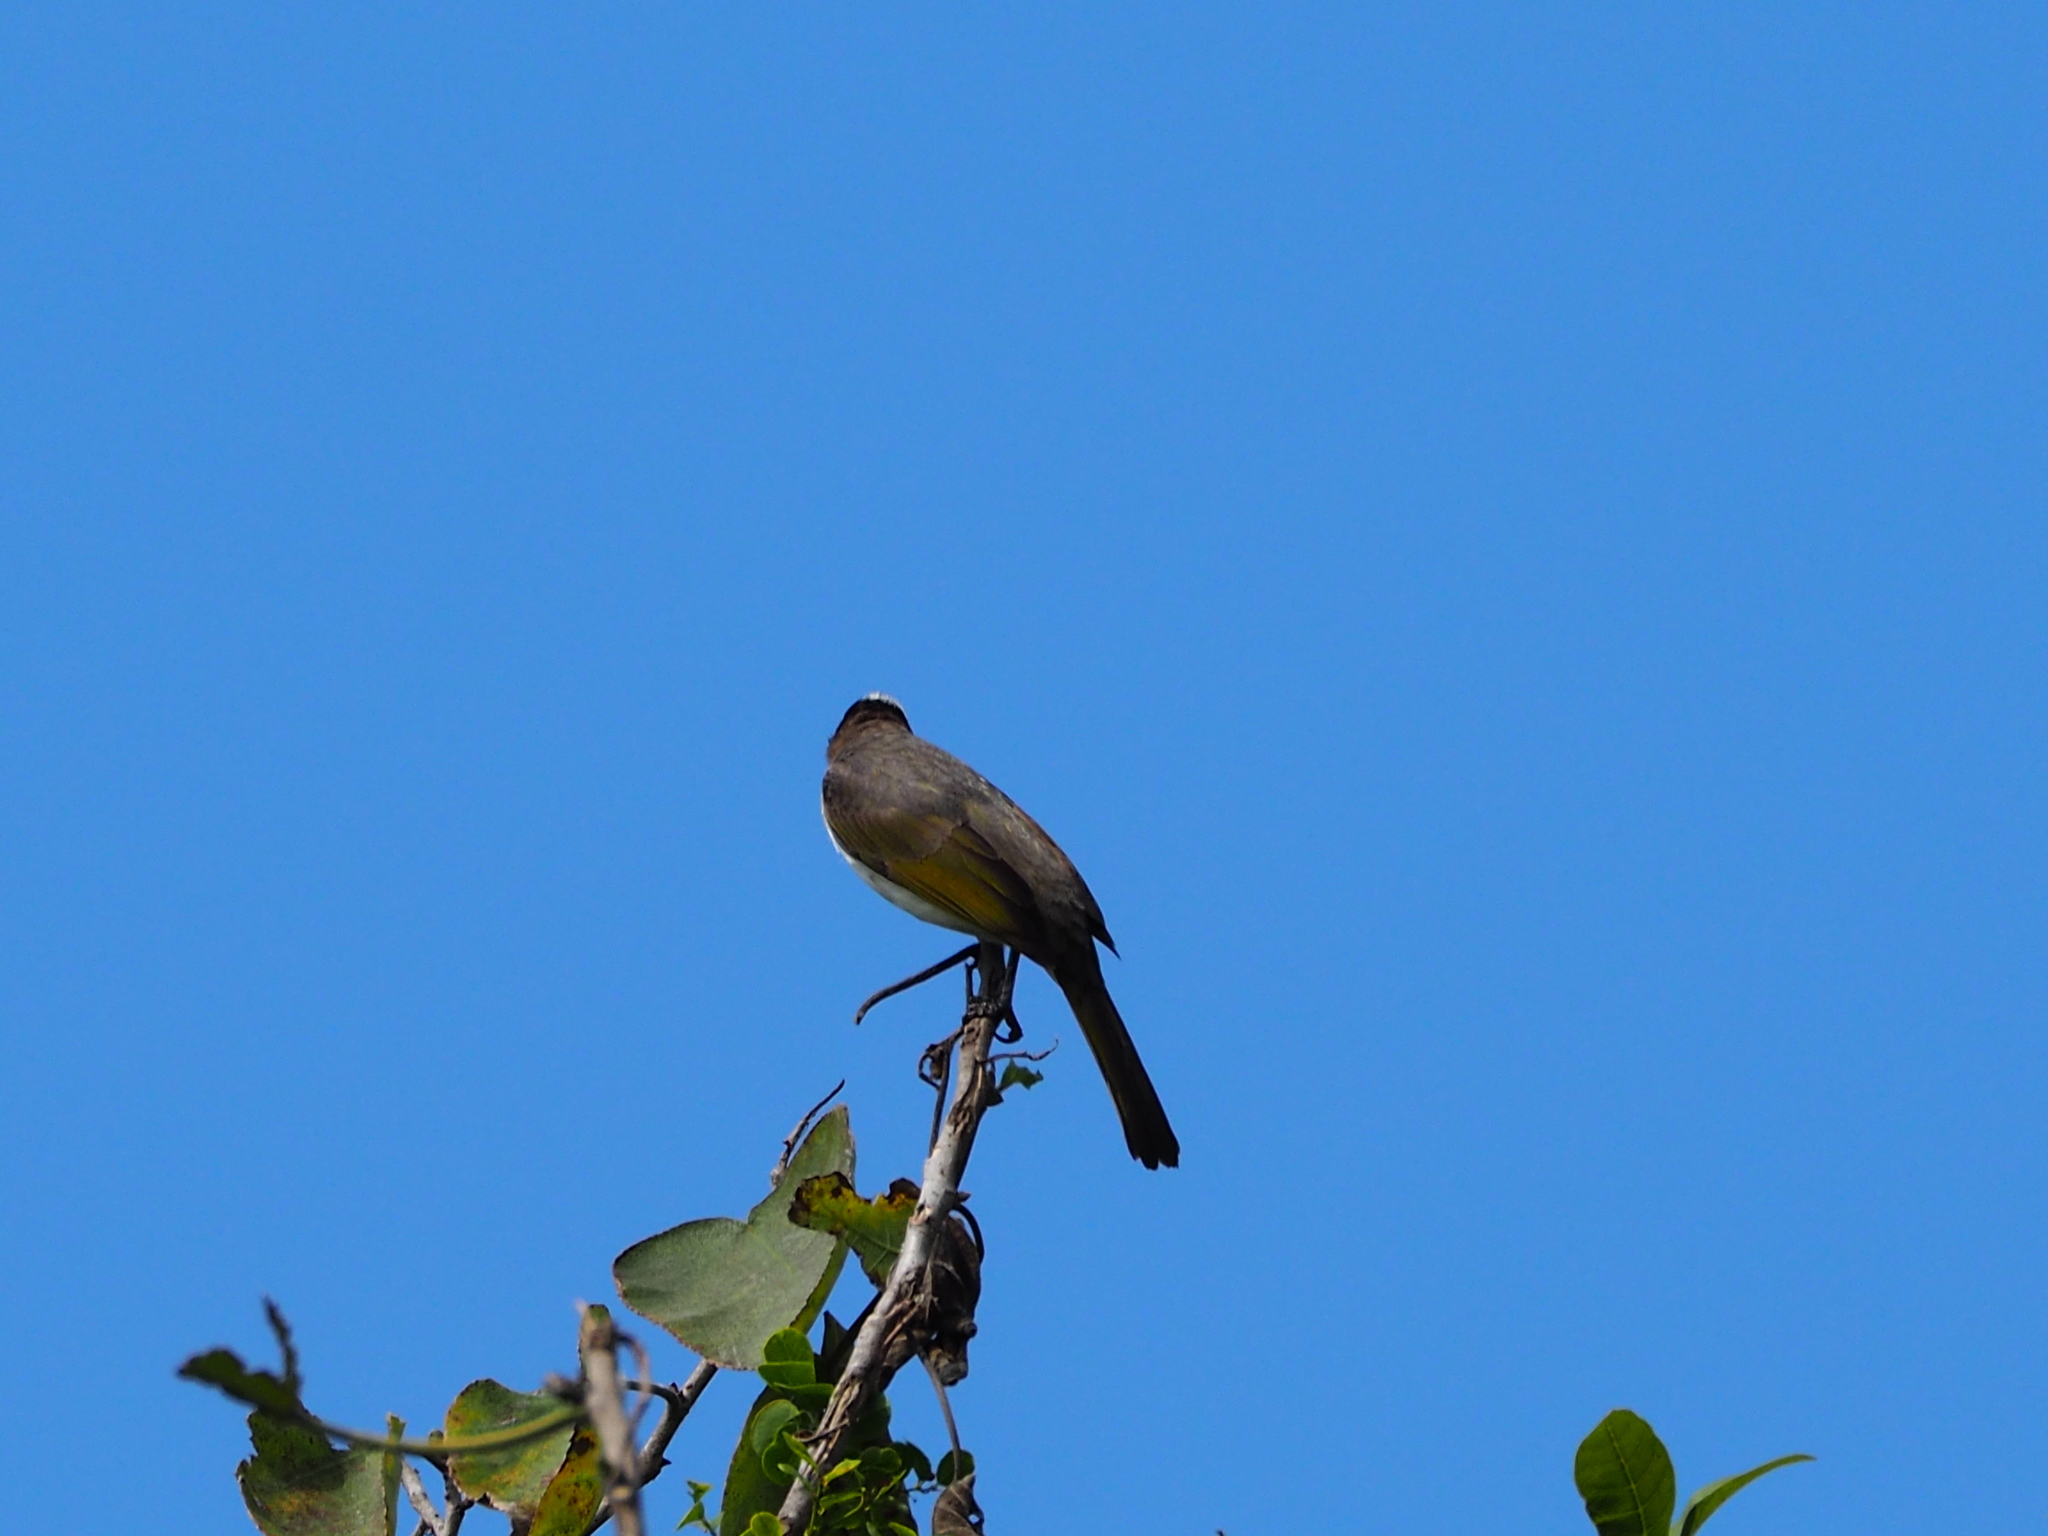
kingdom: Animalia
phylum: Chordata
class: Aves
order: Passeriformes
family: Pycnonotidae
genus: Pycnonotus
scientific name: Pycnonotus sinensis
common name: Light-vented bulbul
